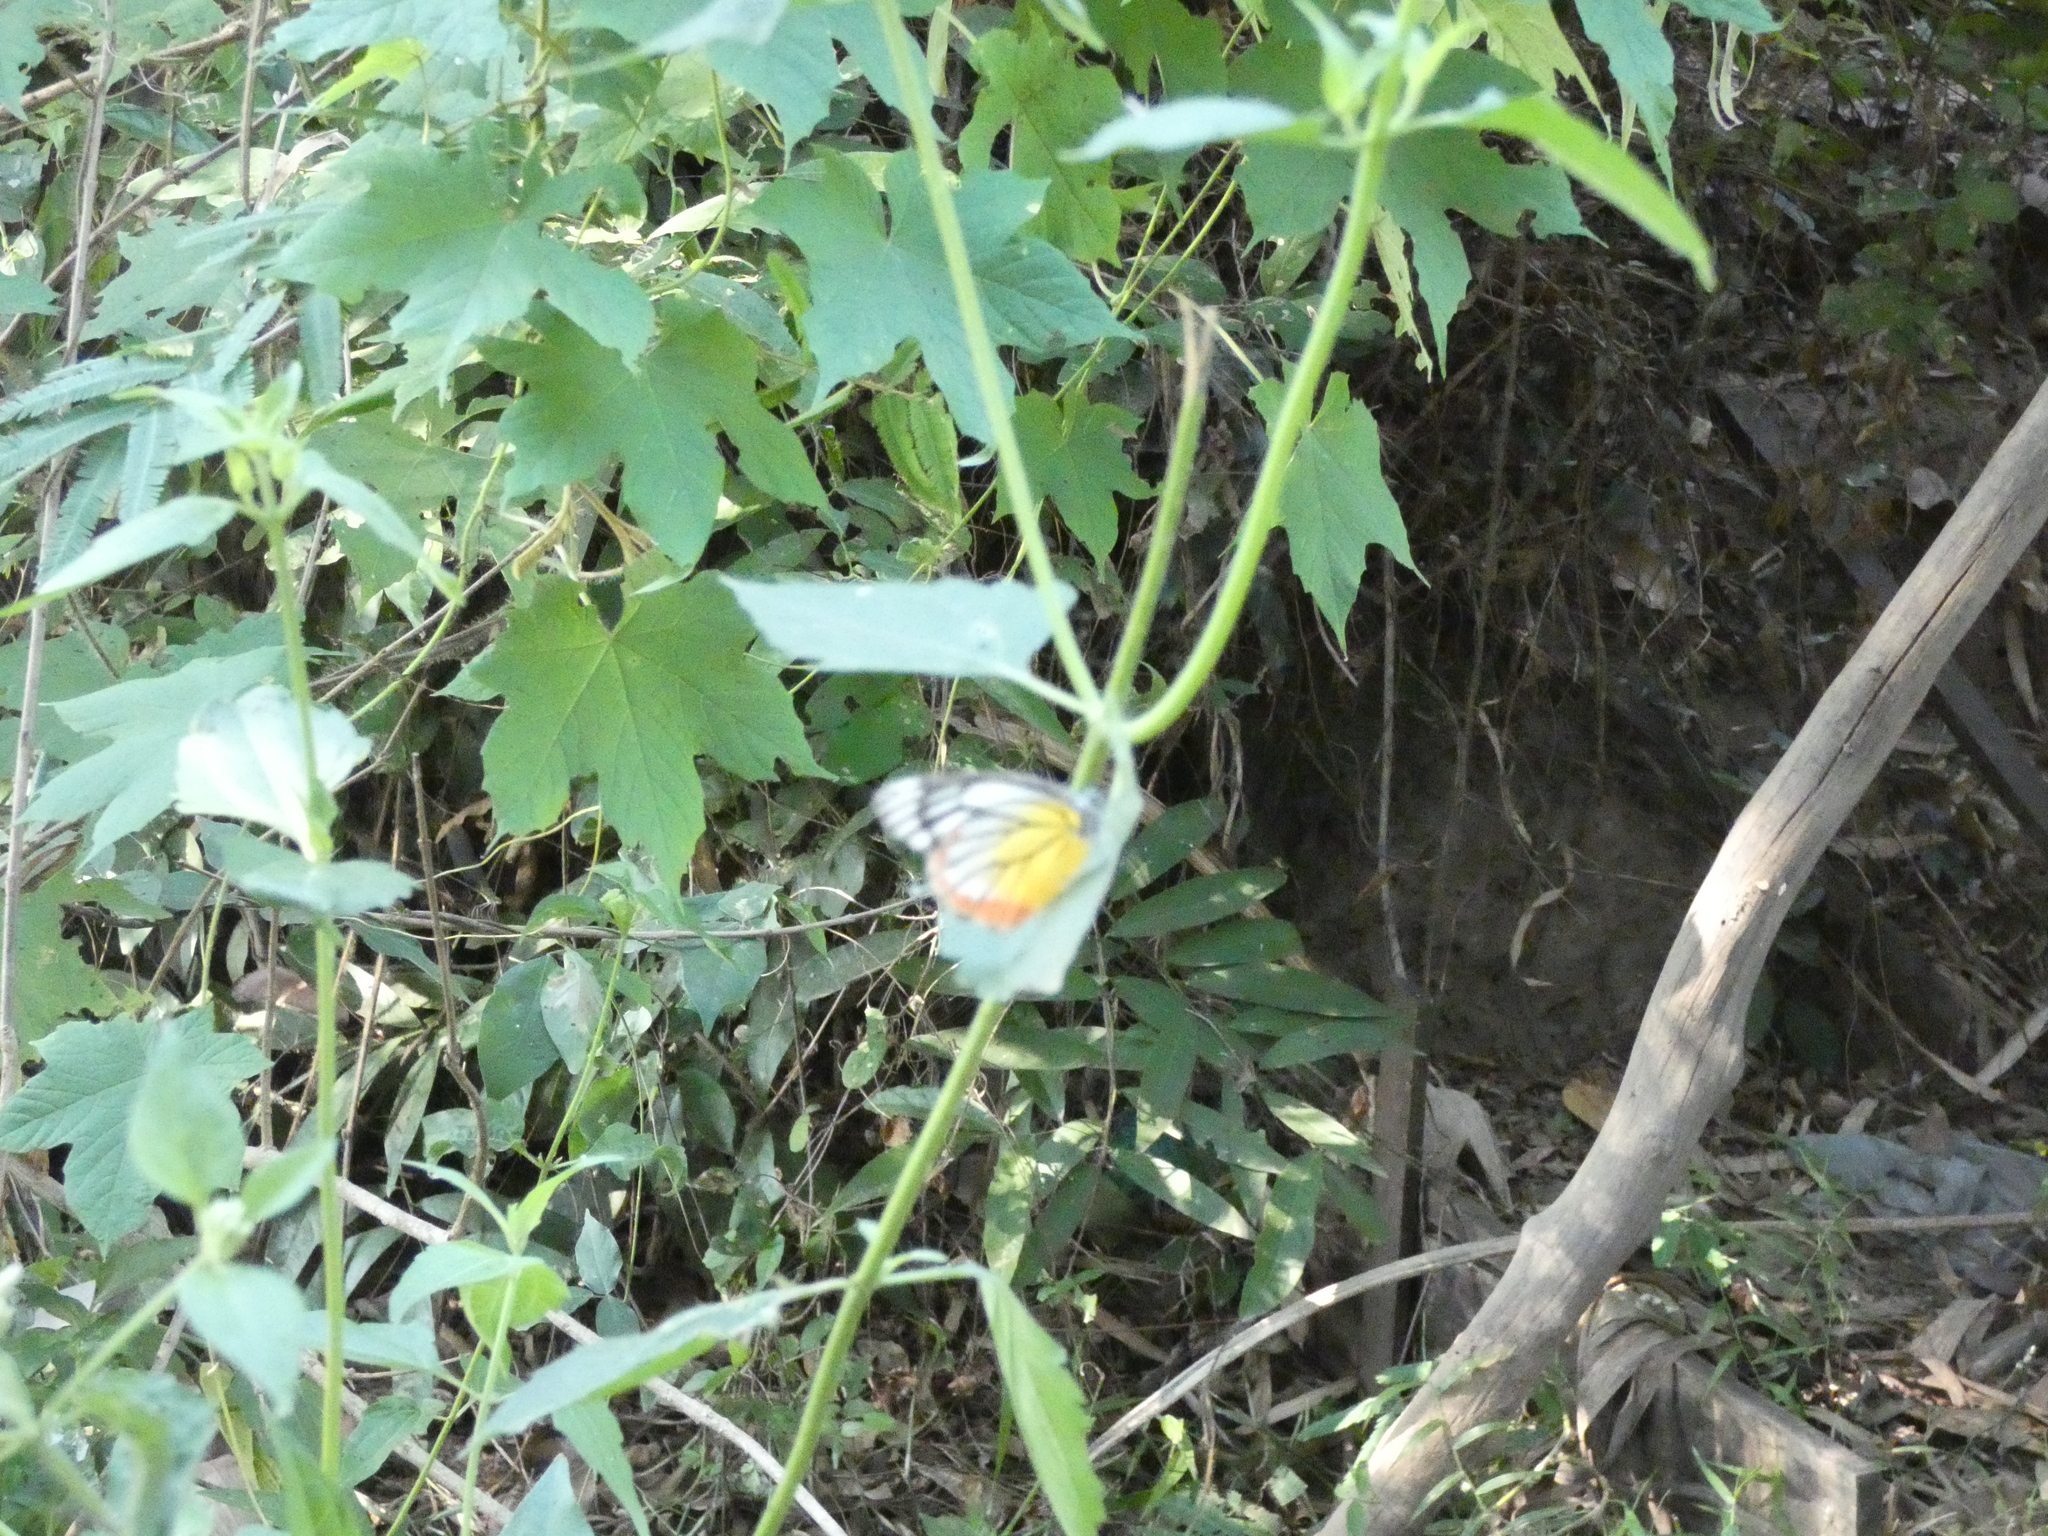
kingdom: Animalia
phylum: Arthropoda
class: Insecta
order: Lepidoptera
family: Pieridae
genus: Delias
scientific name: Delias hyparete
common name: Painted jezebel
